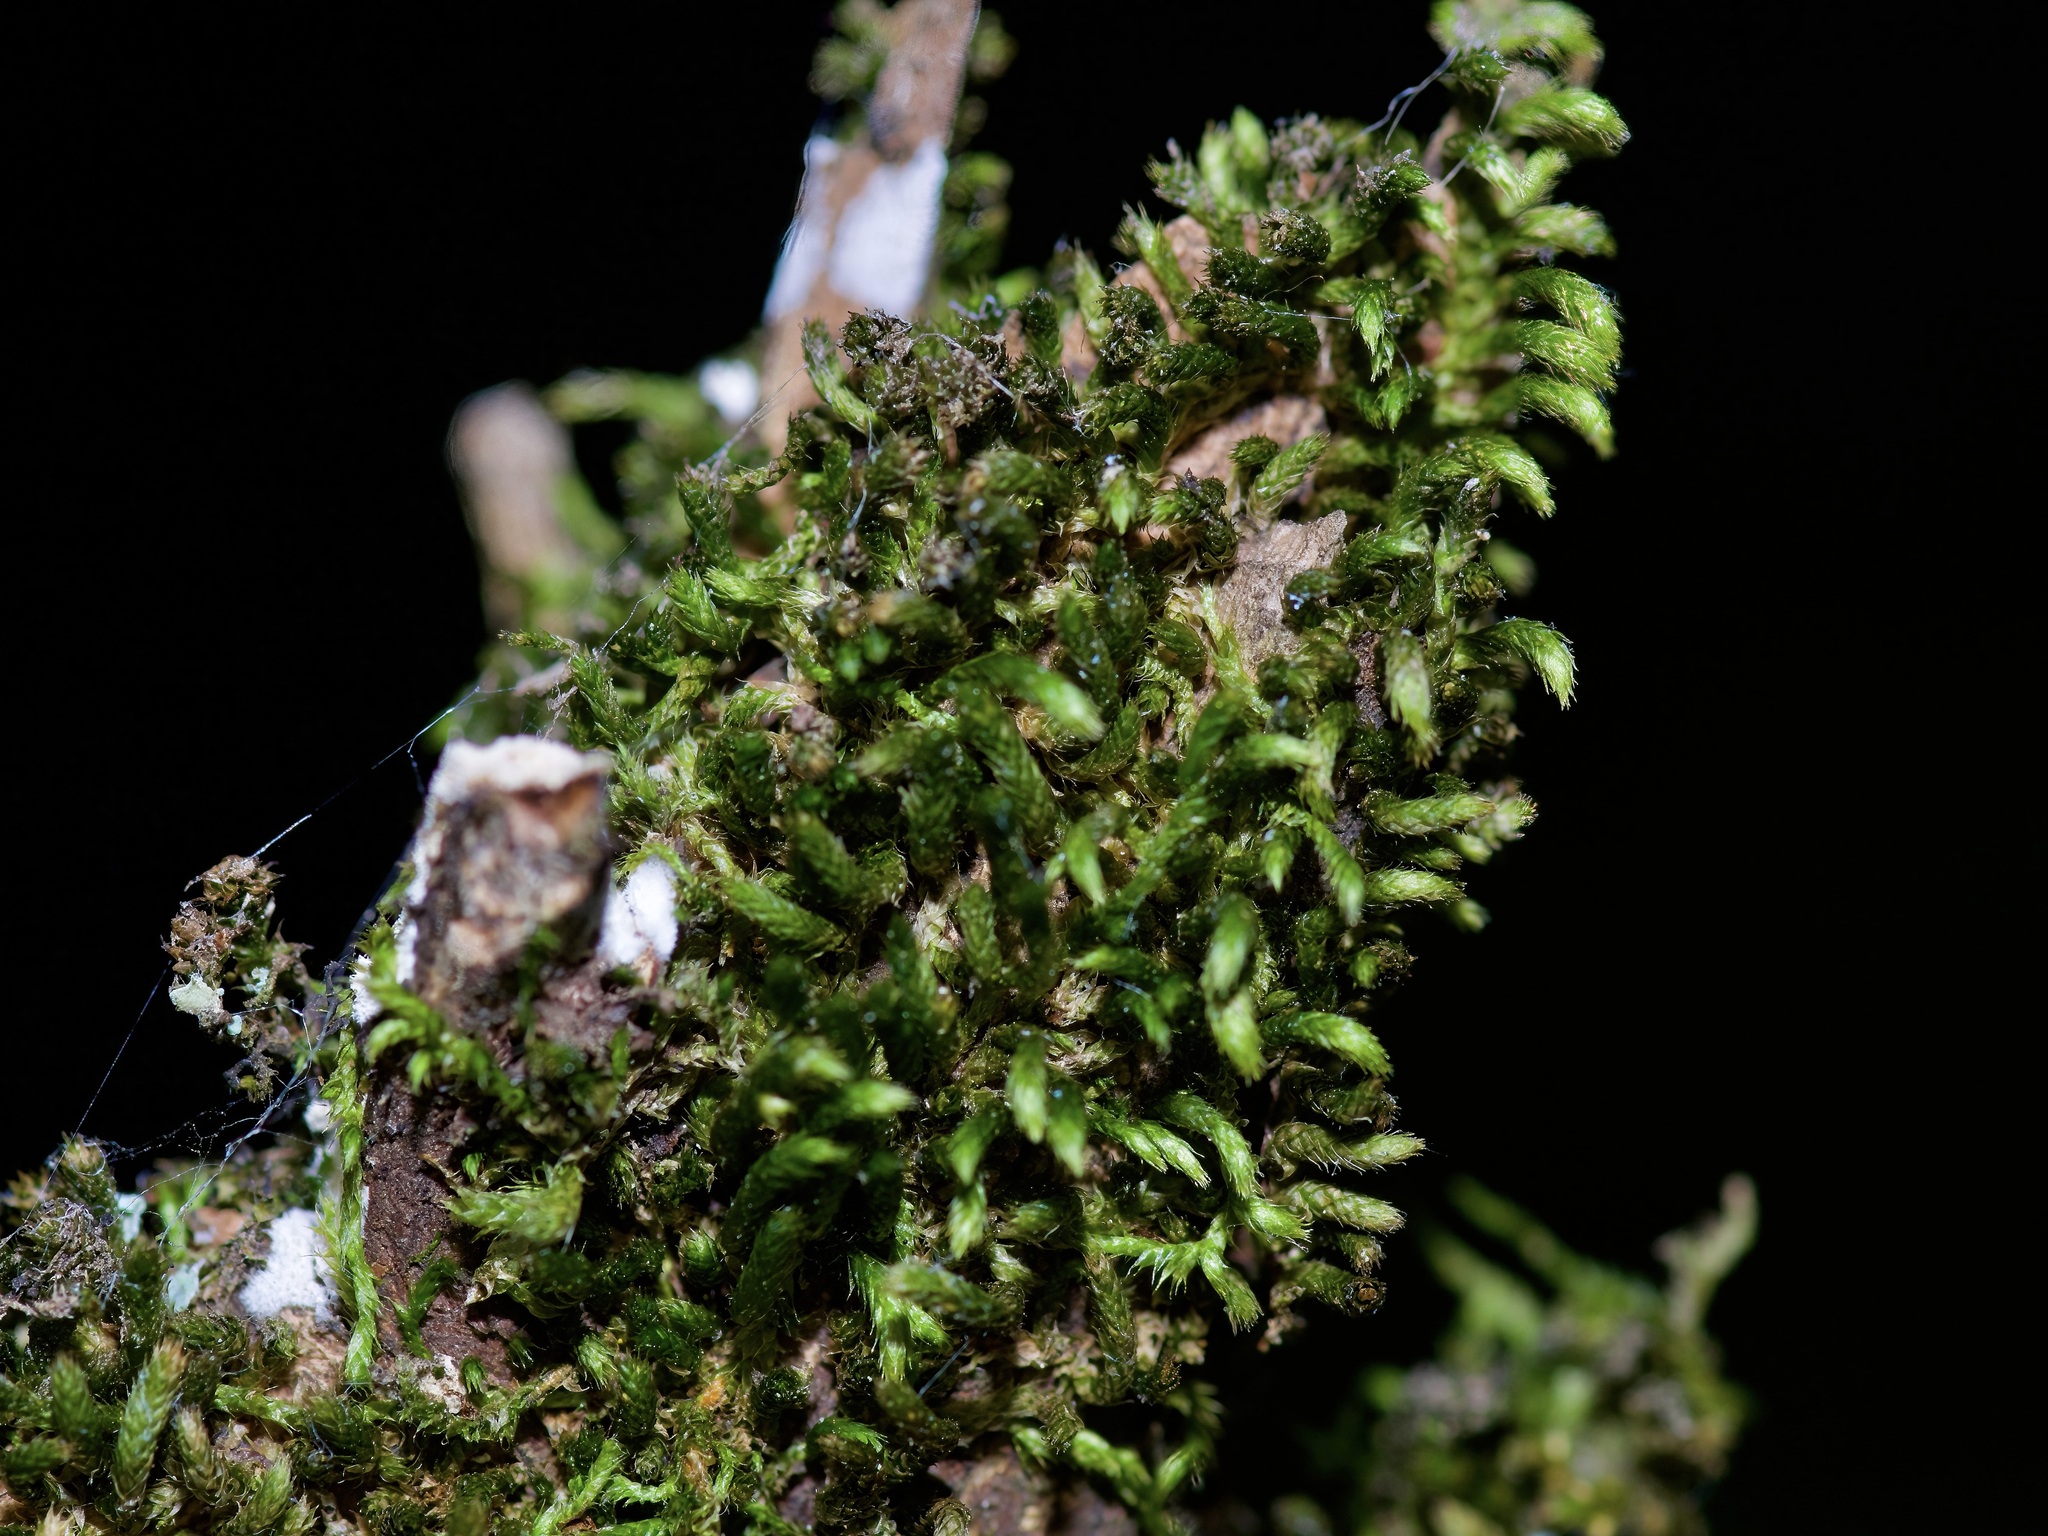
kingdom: Plantae
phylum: Bryophyta
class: Bryopsida
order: Hypnales
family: Leucodontaceae
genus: Leucodon
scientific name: Leucodon julaceus
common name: Smooth hook moss
